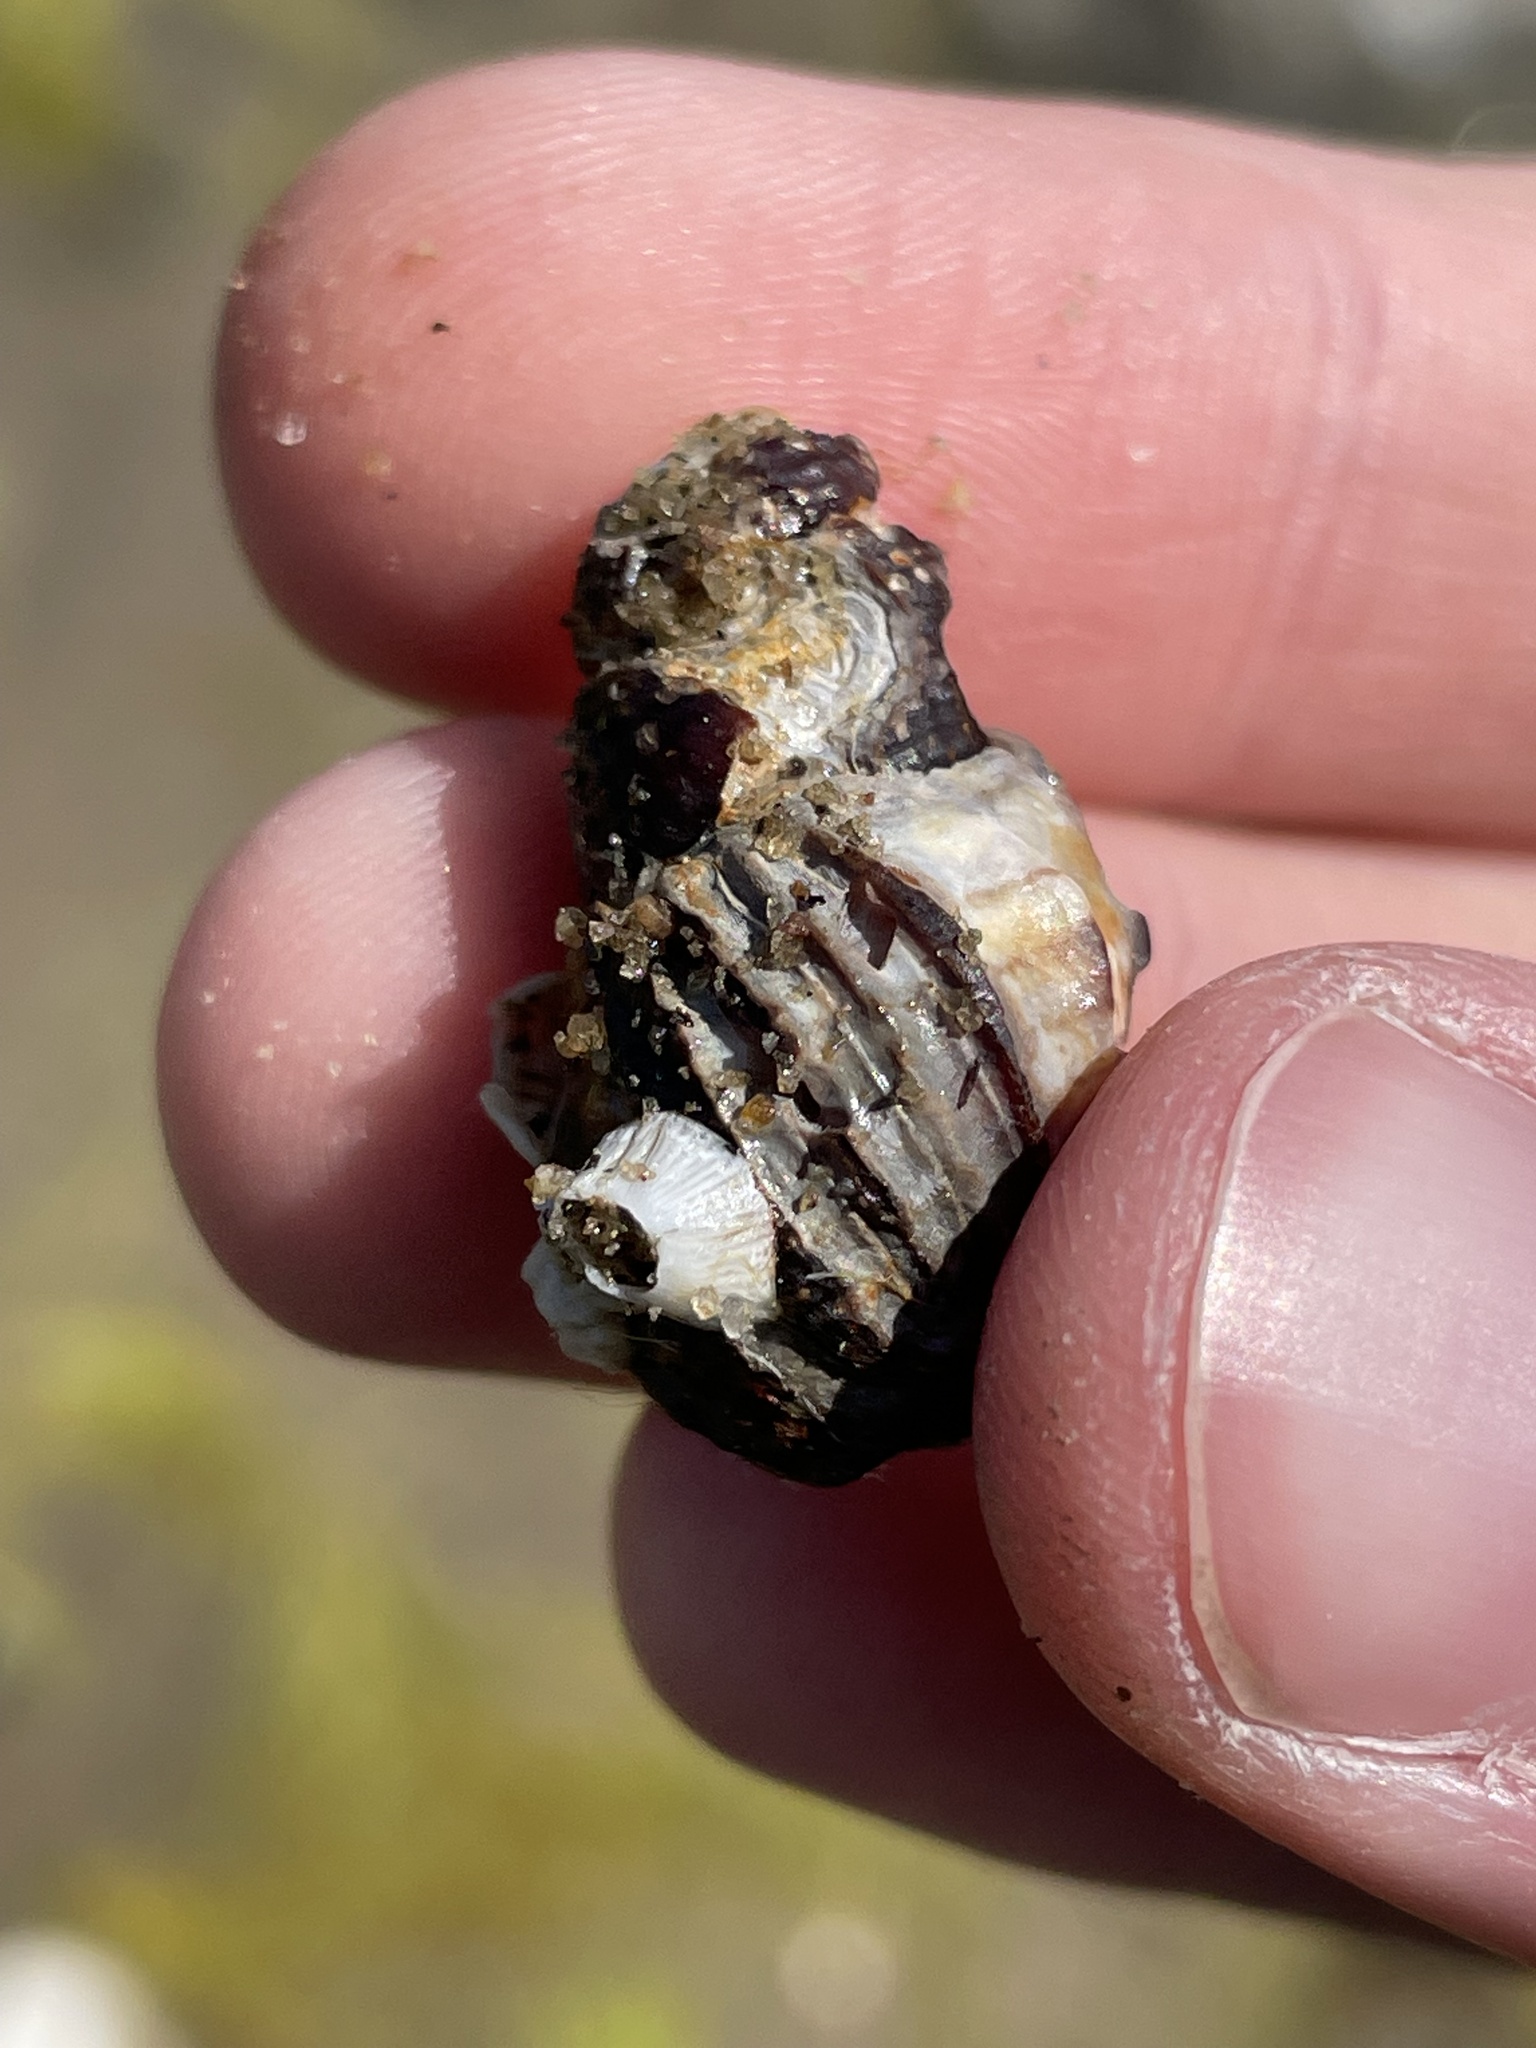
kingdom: Animalia
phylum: Mollusca
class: Gastropoda
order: Neogastropoda
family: Nassariidae
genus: Ilyanassa
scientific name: Ilyanassa obsoleta
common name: Eastern mudsnail
